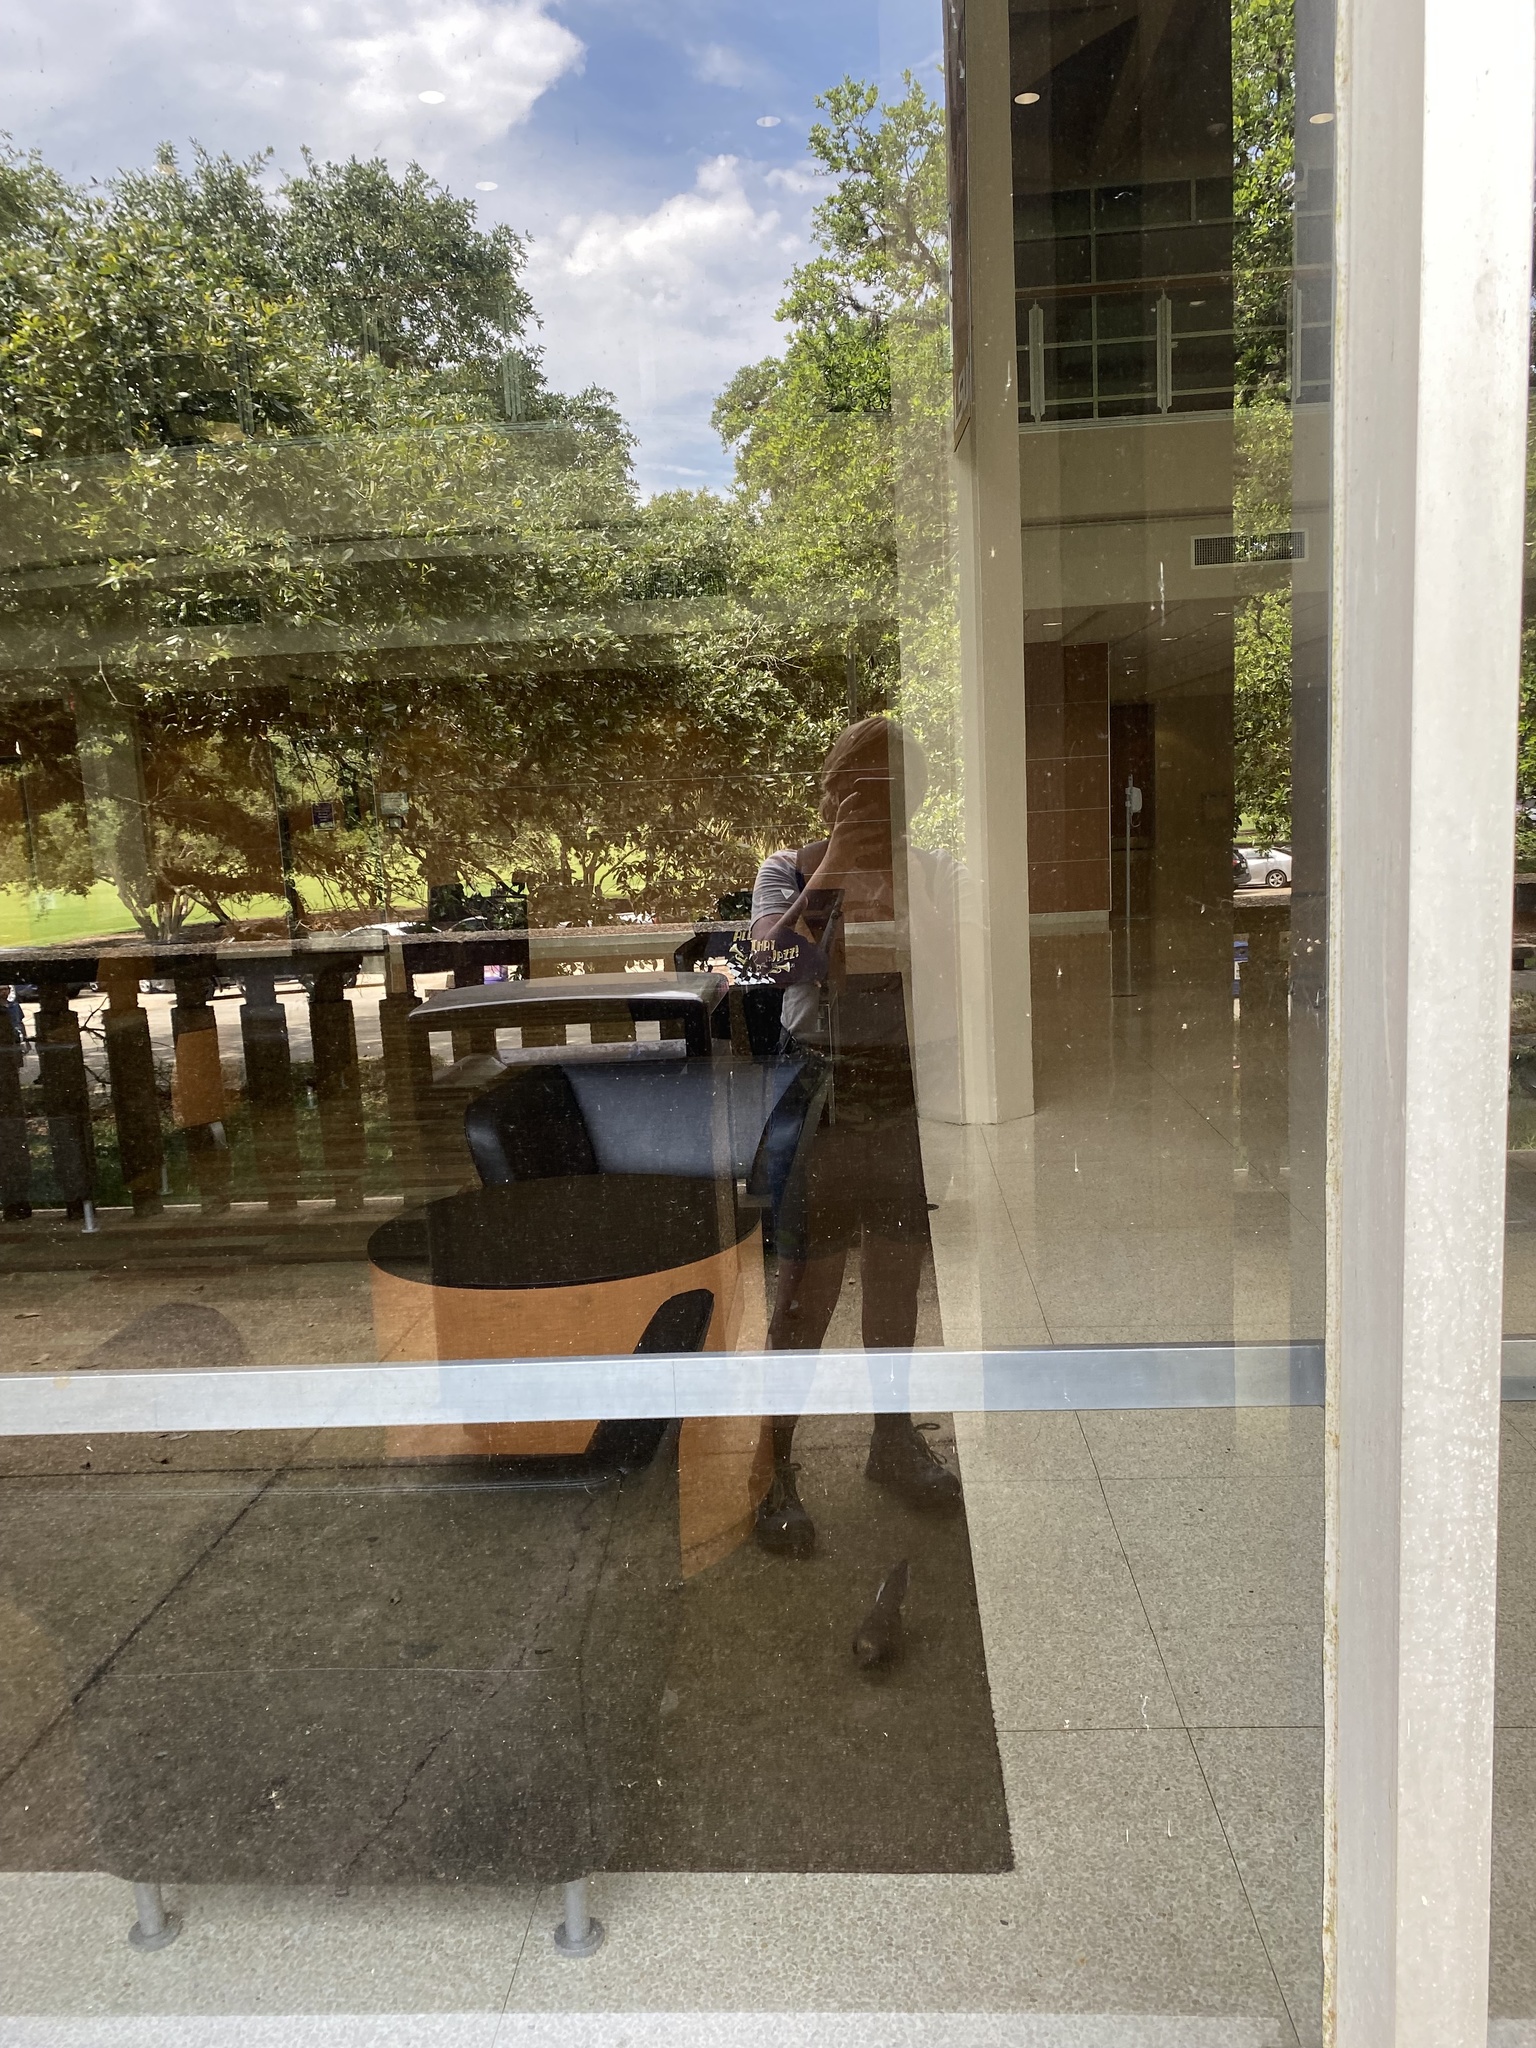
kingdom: Animalia
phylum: Chordata
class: Aves
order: Columbiformes
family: Columbidae
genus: Zenaida
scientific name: Zenaida macroura
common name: Mourning dove
